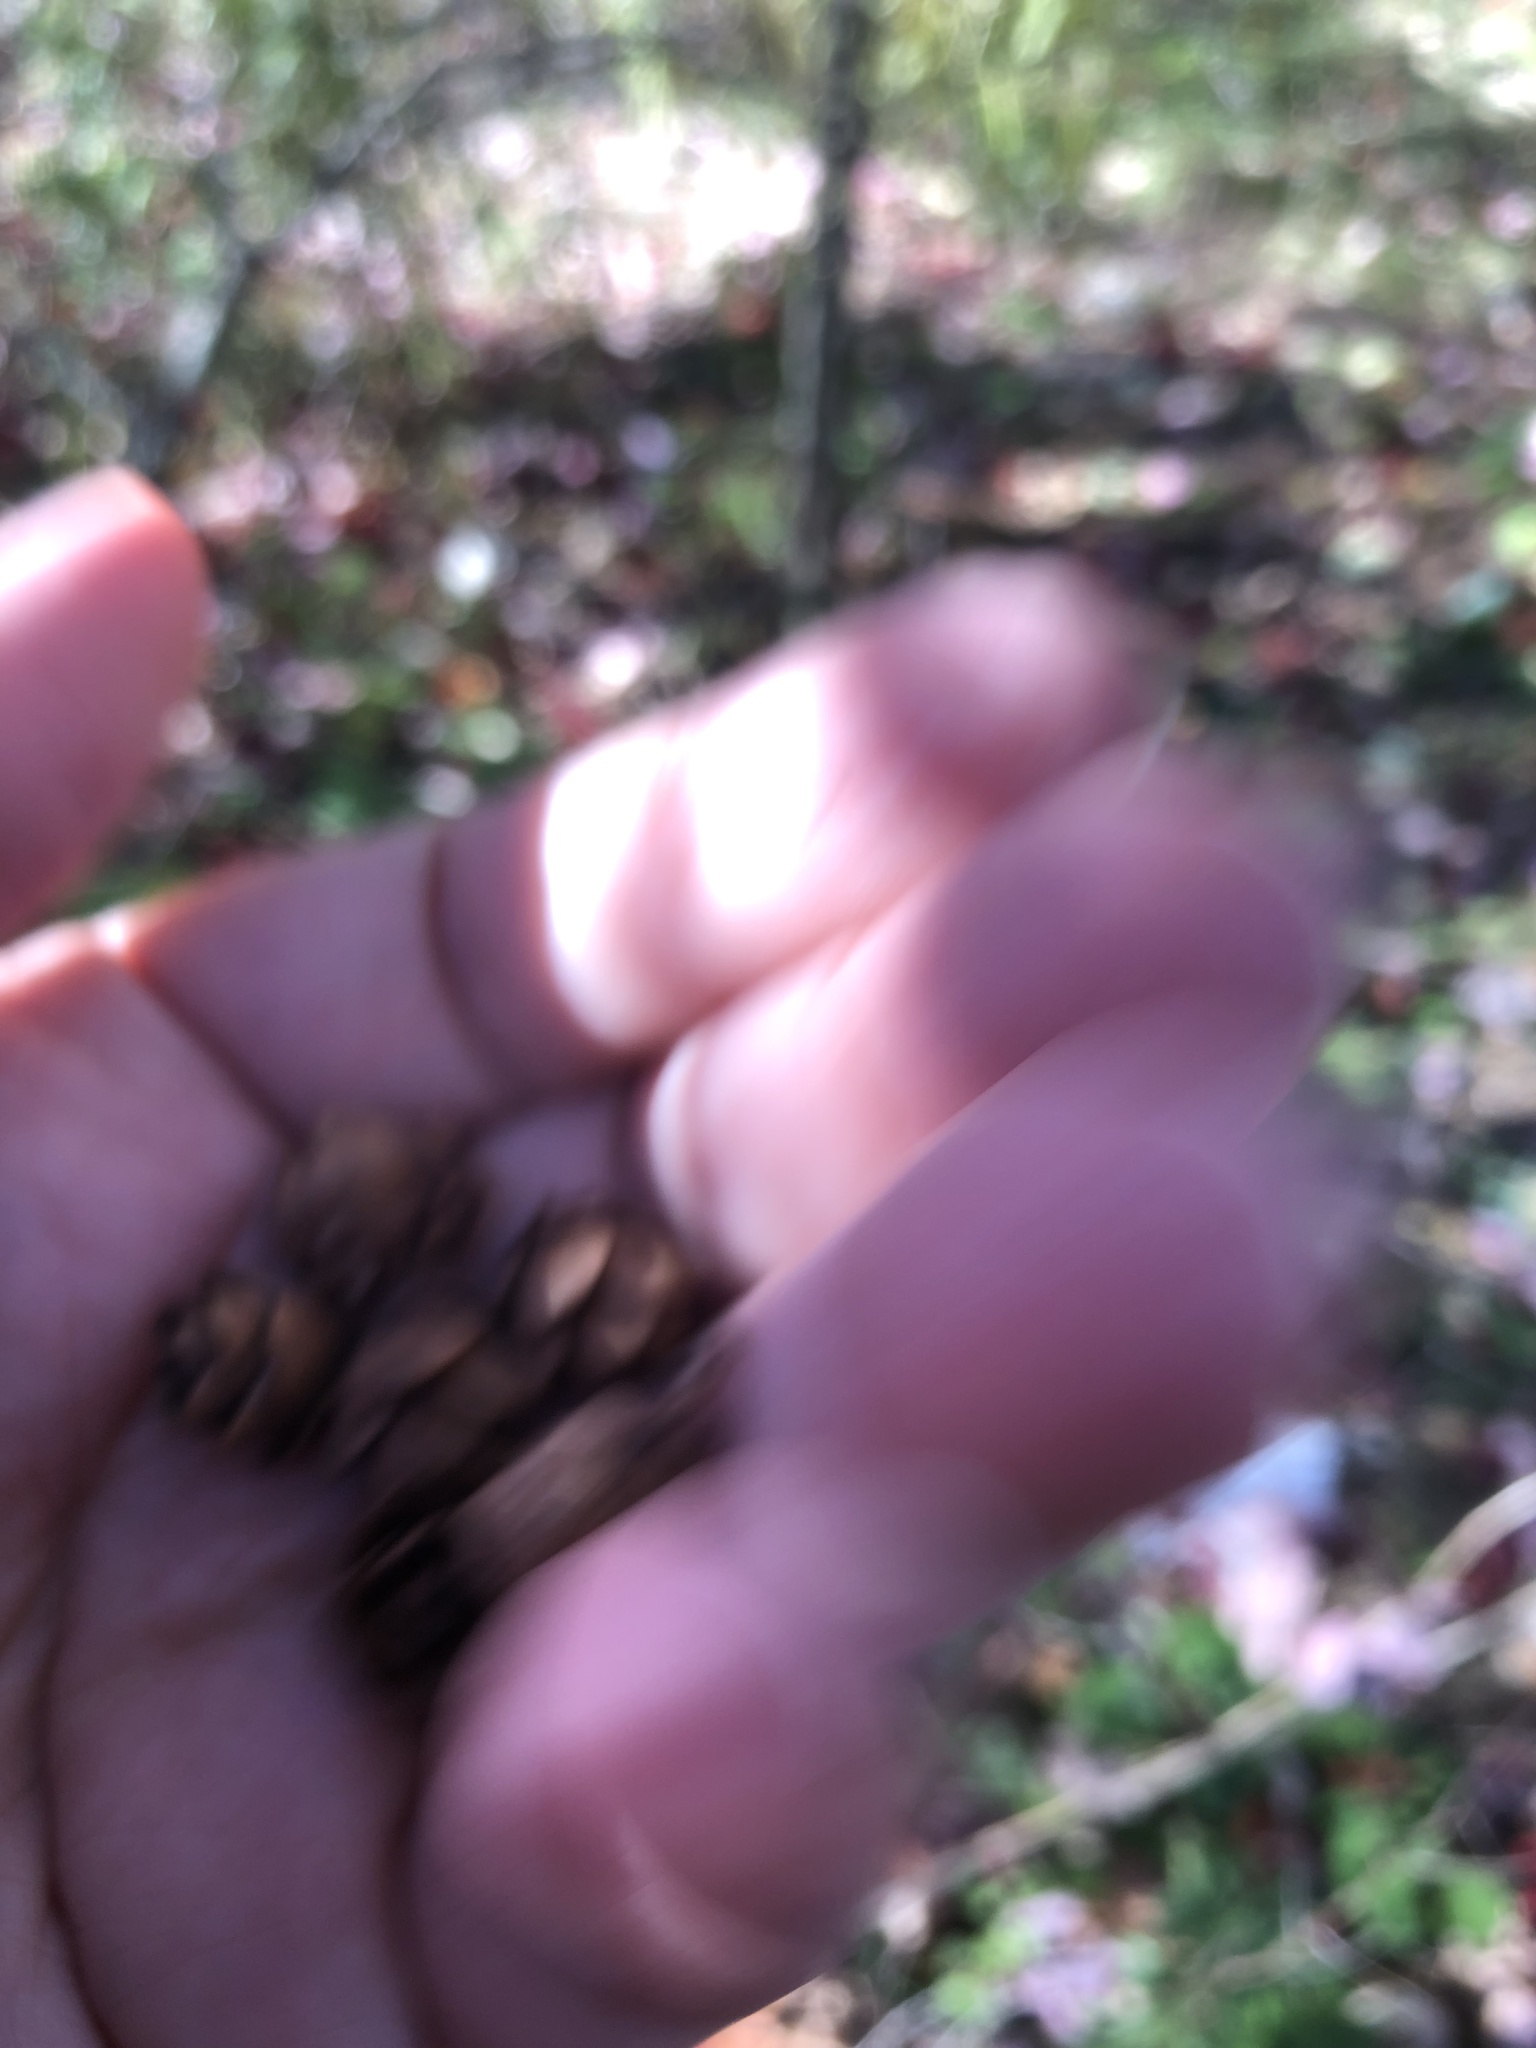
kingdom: Plantae
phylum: Tracheophyta
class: Pinopsida
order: Pinales
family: Pinaceae
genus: Tsuga
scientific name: Tsuga canadensis
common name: Eastern hemlock
